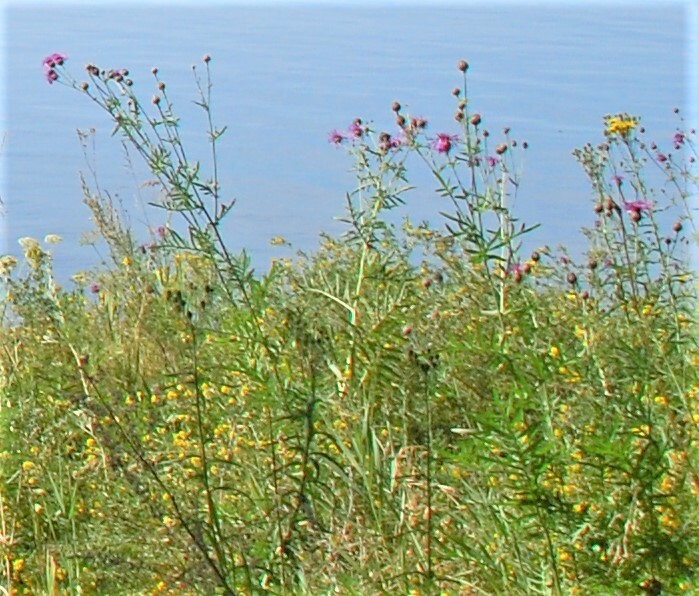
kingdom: Plantae
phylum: Tracheophyta
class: Magnoliopsida
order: Asterales
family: Asteraceae
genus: Centaurea
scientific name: Centaurea scabiosa
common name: Greater knapweed
